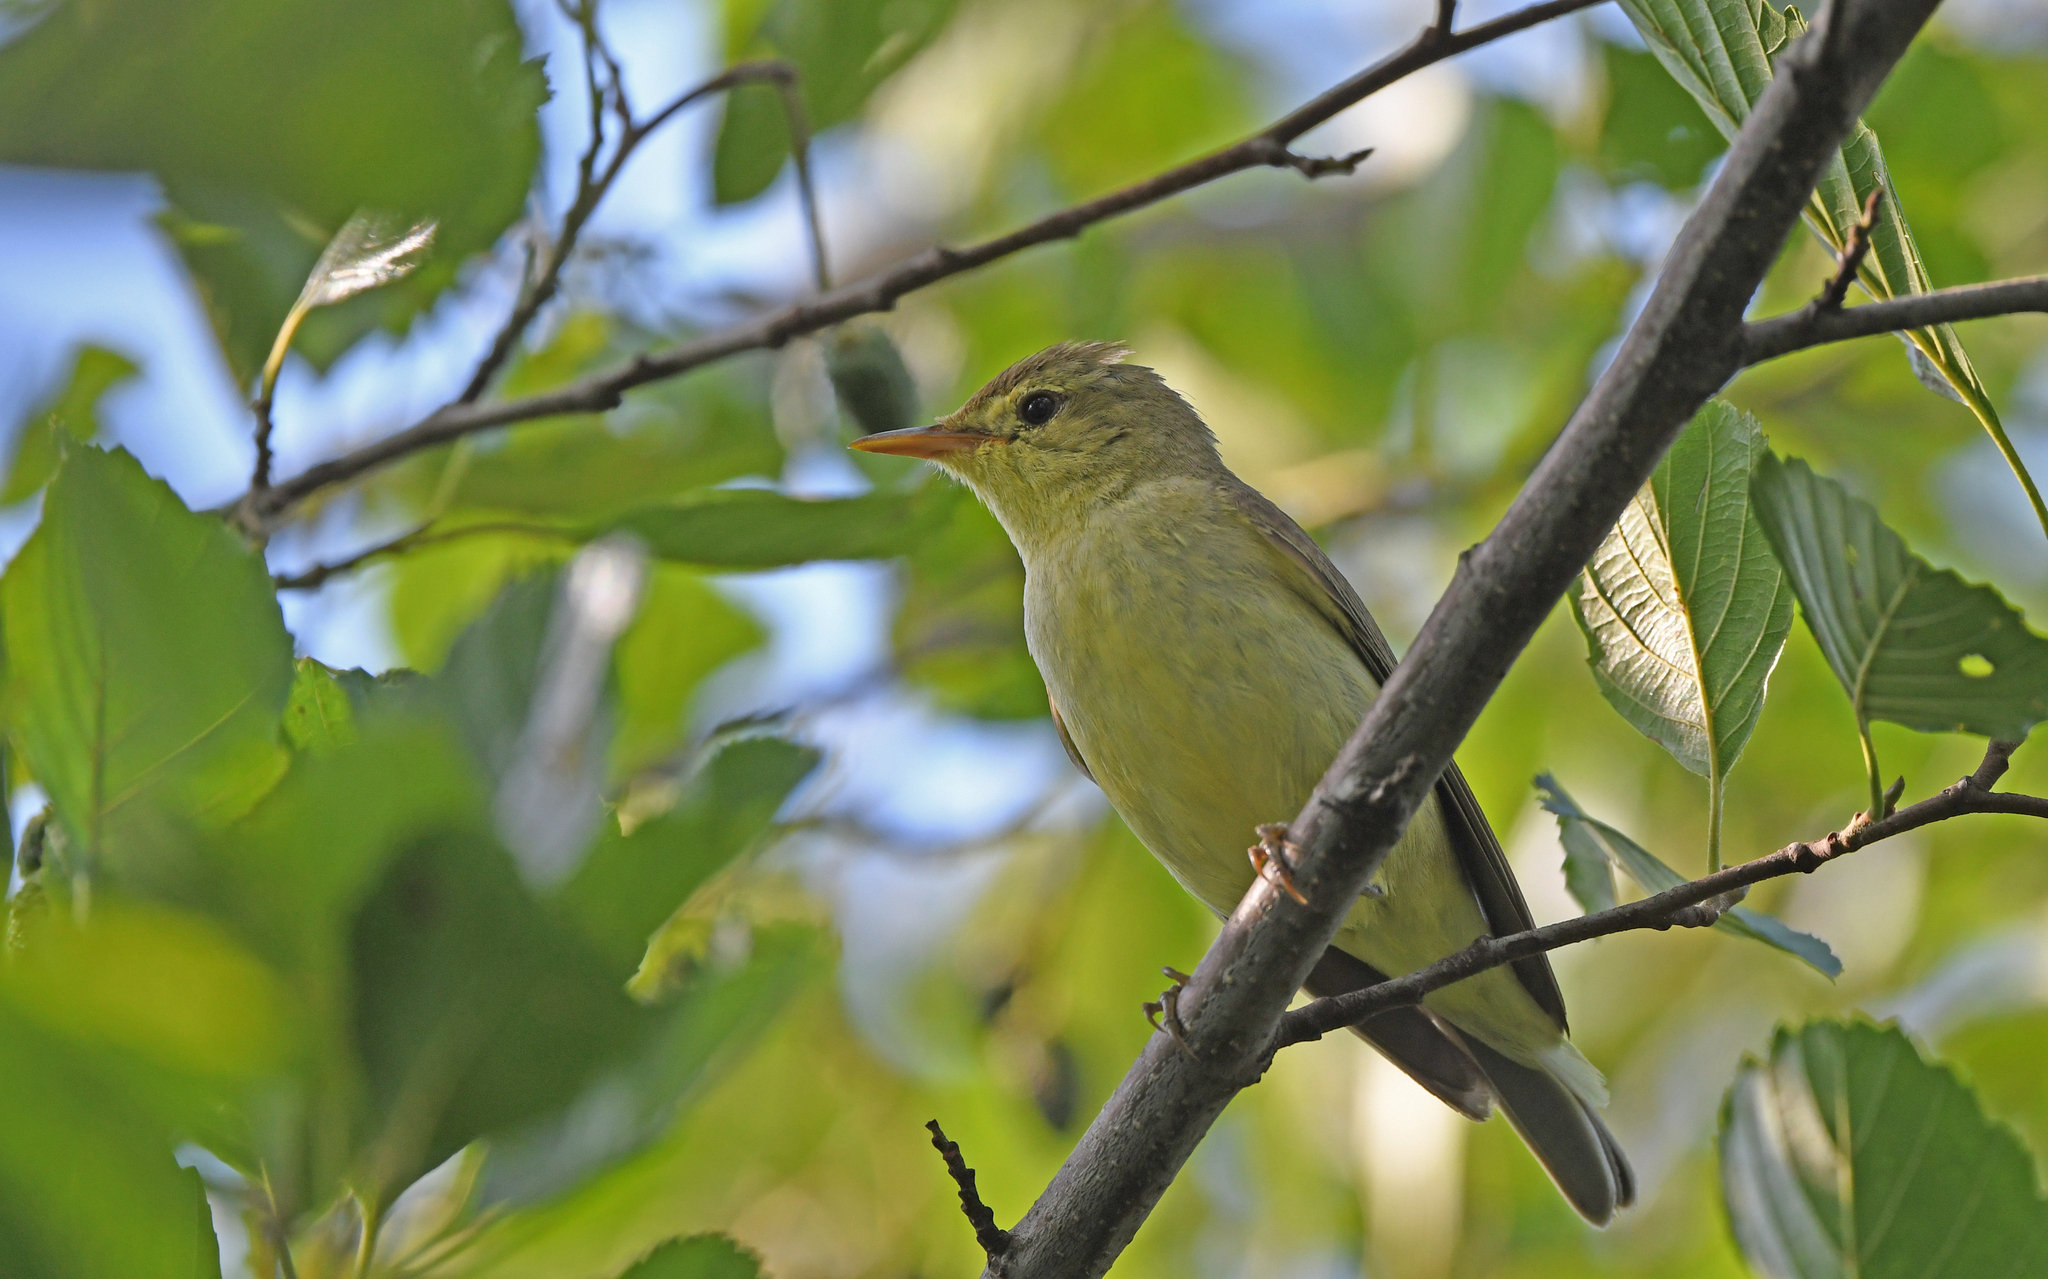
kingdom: Animalia
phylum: Chordata
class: Aves
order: Passeriformes
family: Acrocephalidae
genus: Hippolais
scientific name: Hippolais icterina
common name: Icterine warbler
